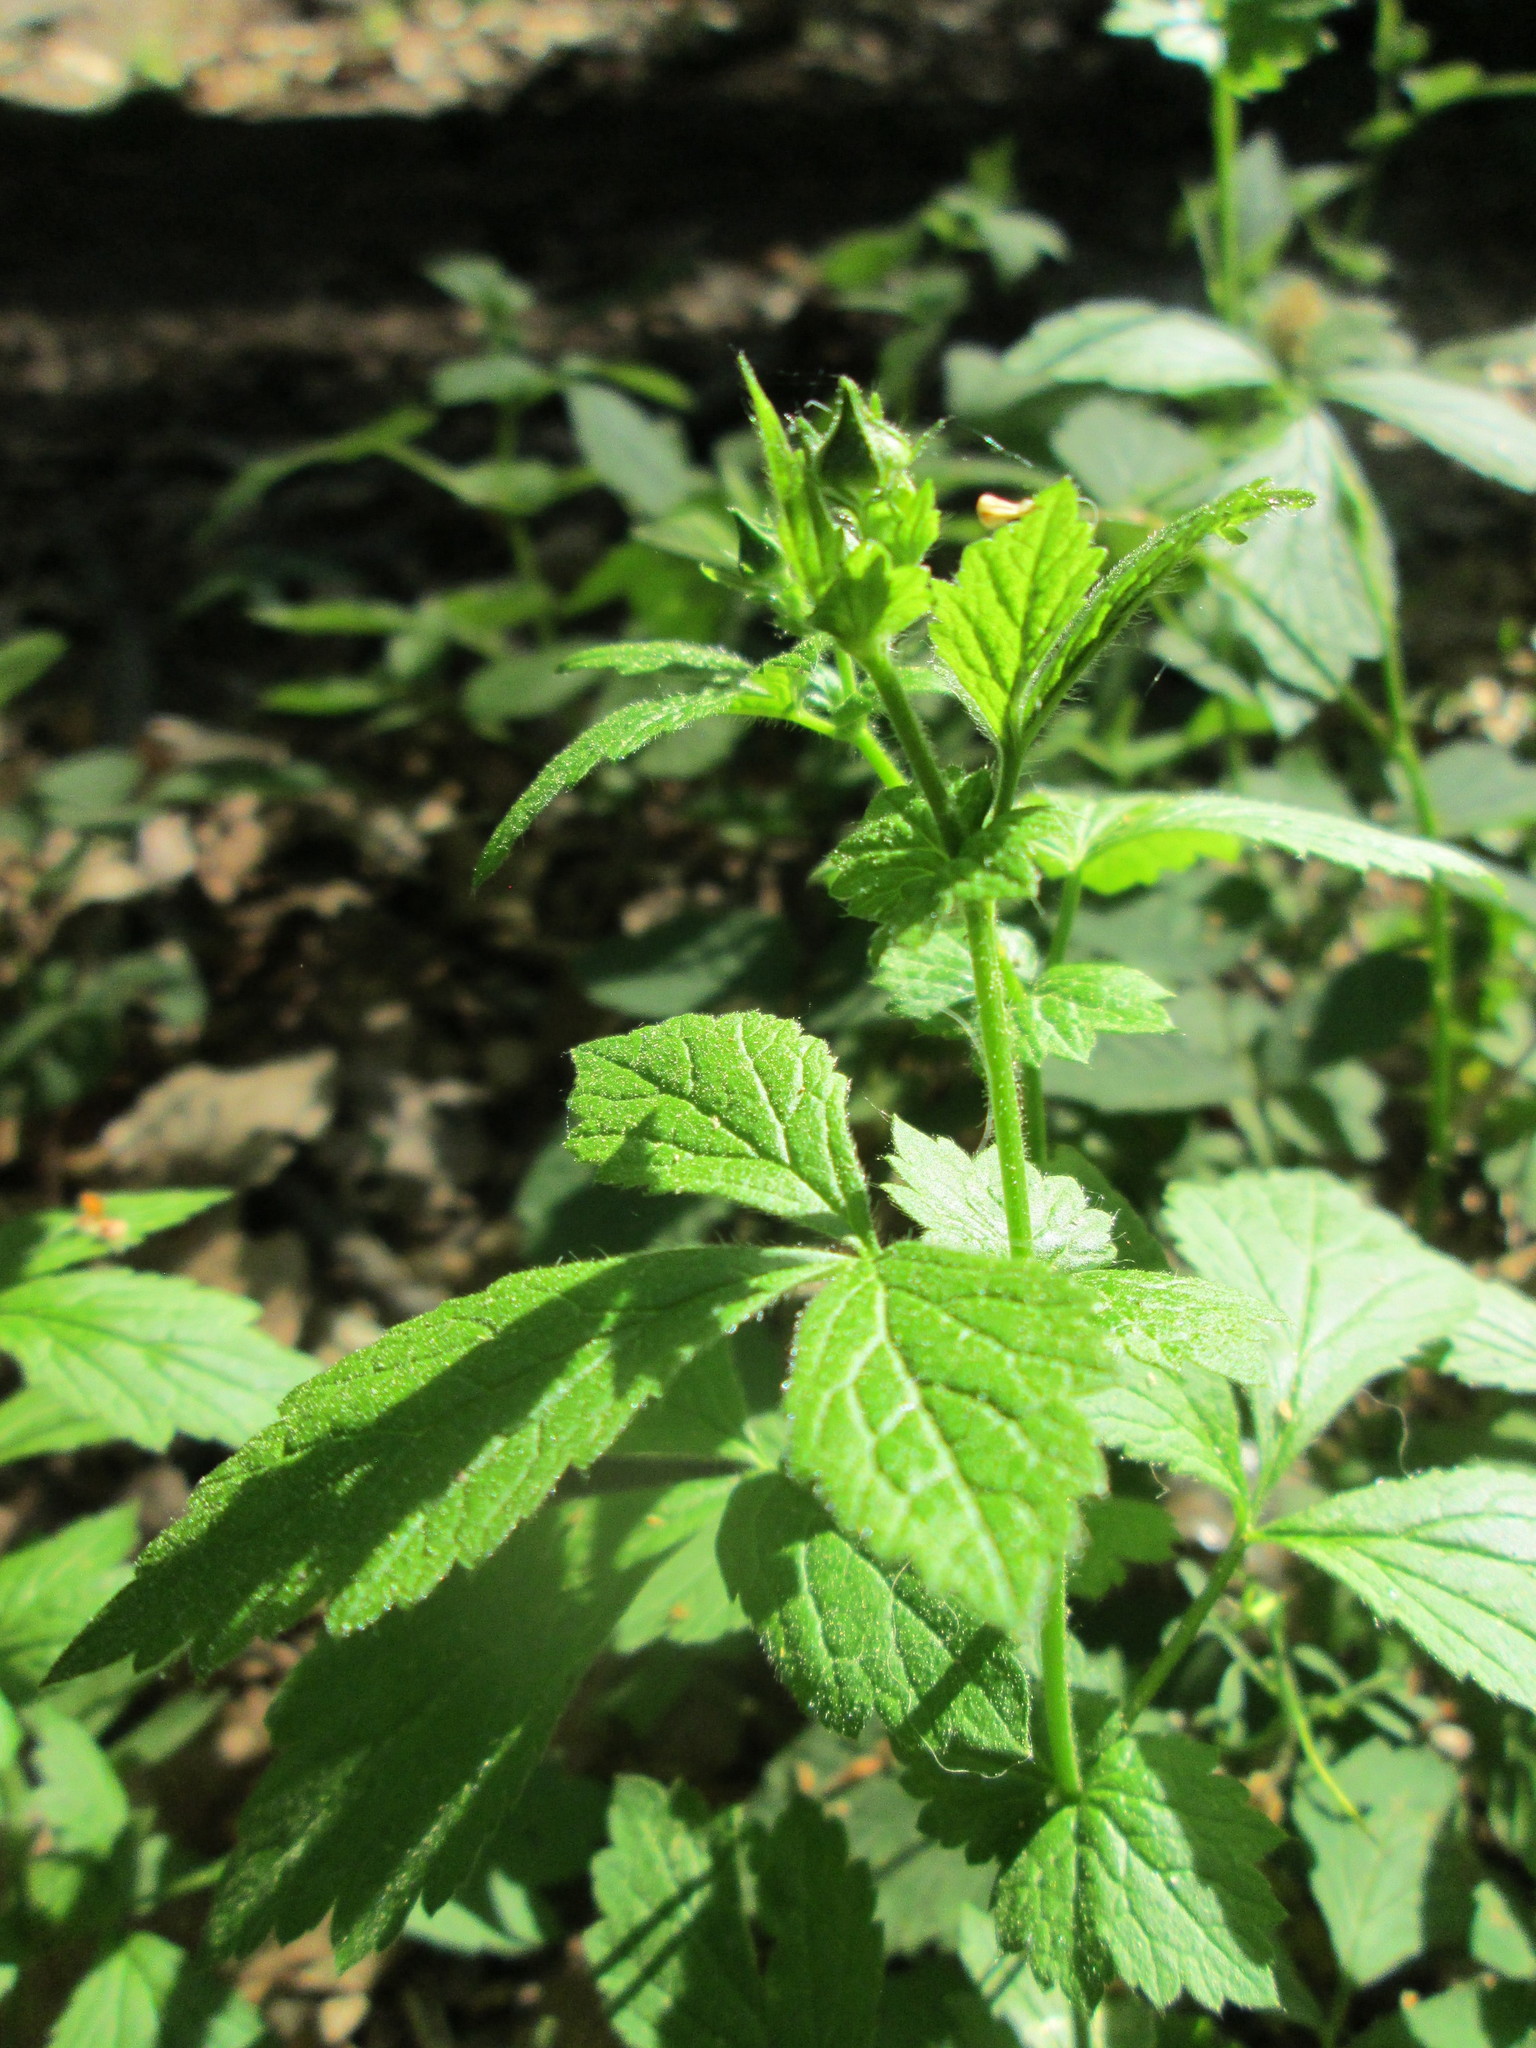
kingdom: Plantae
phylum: Tracheophyta
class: Magnoliopsida
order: Rosales
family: Rosaceae
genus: Geum
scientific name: Geum urbanum
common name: Wood avens
